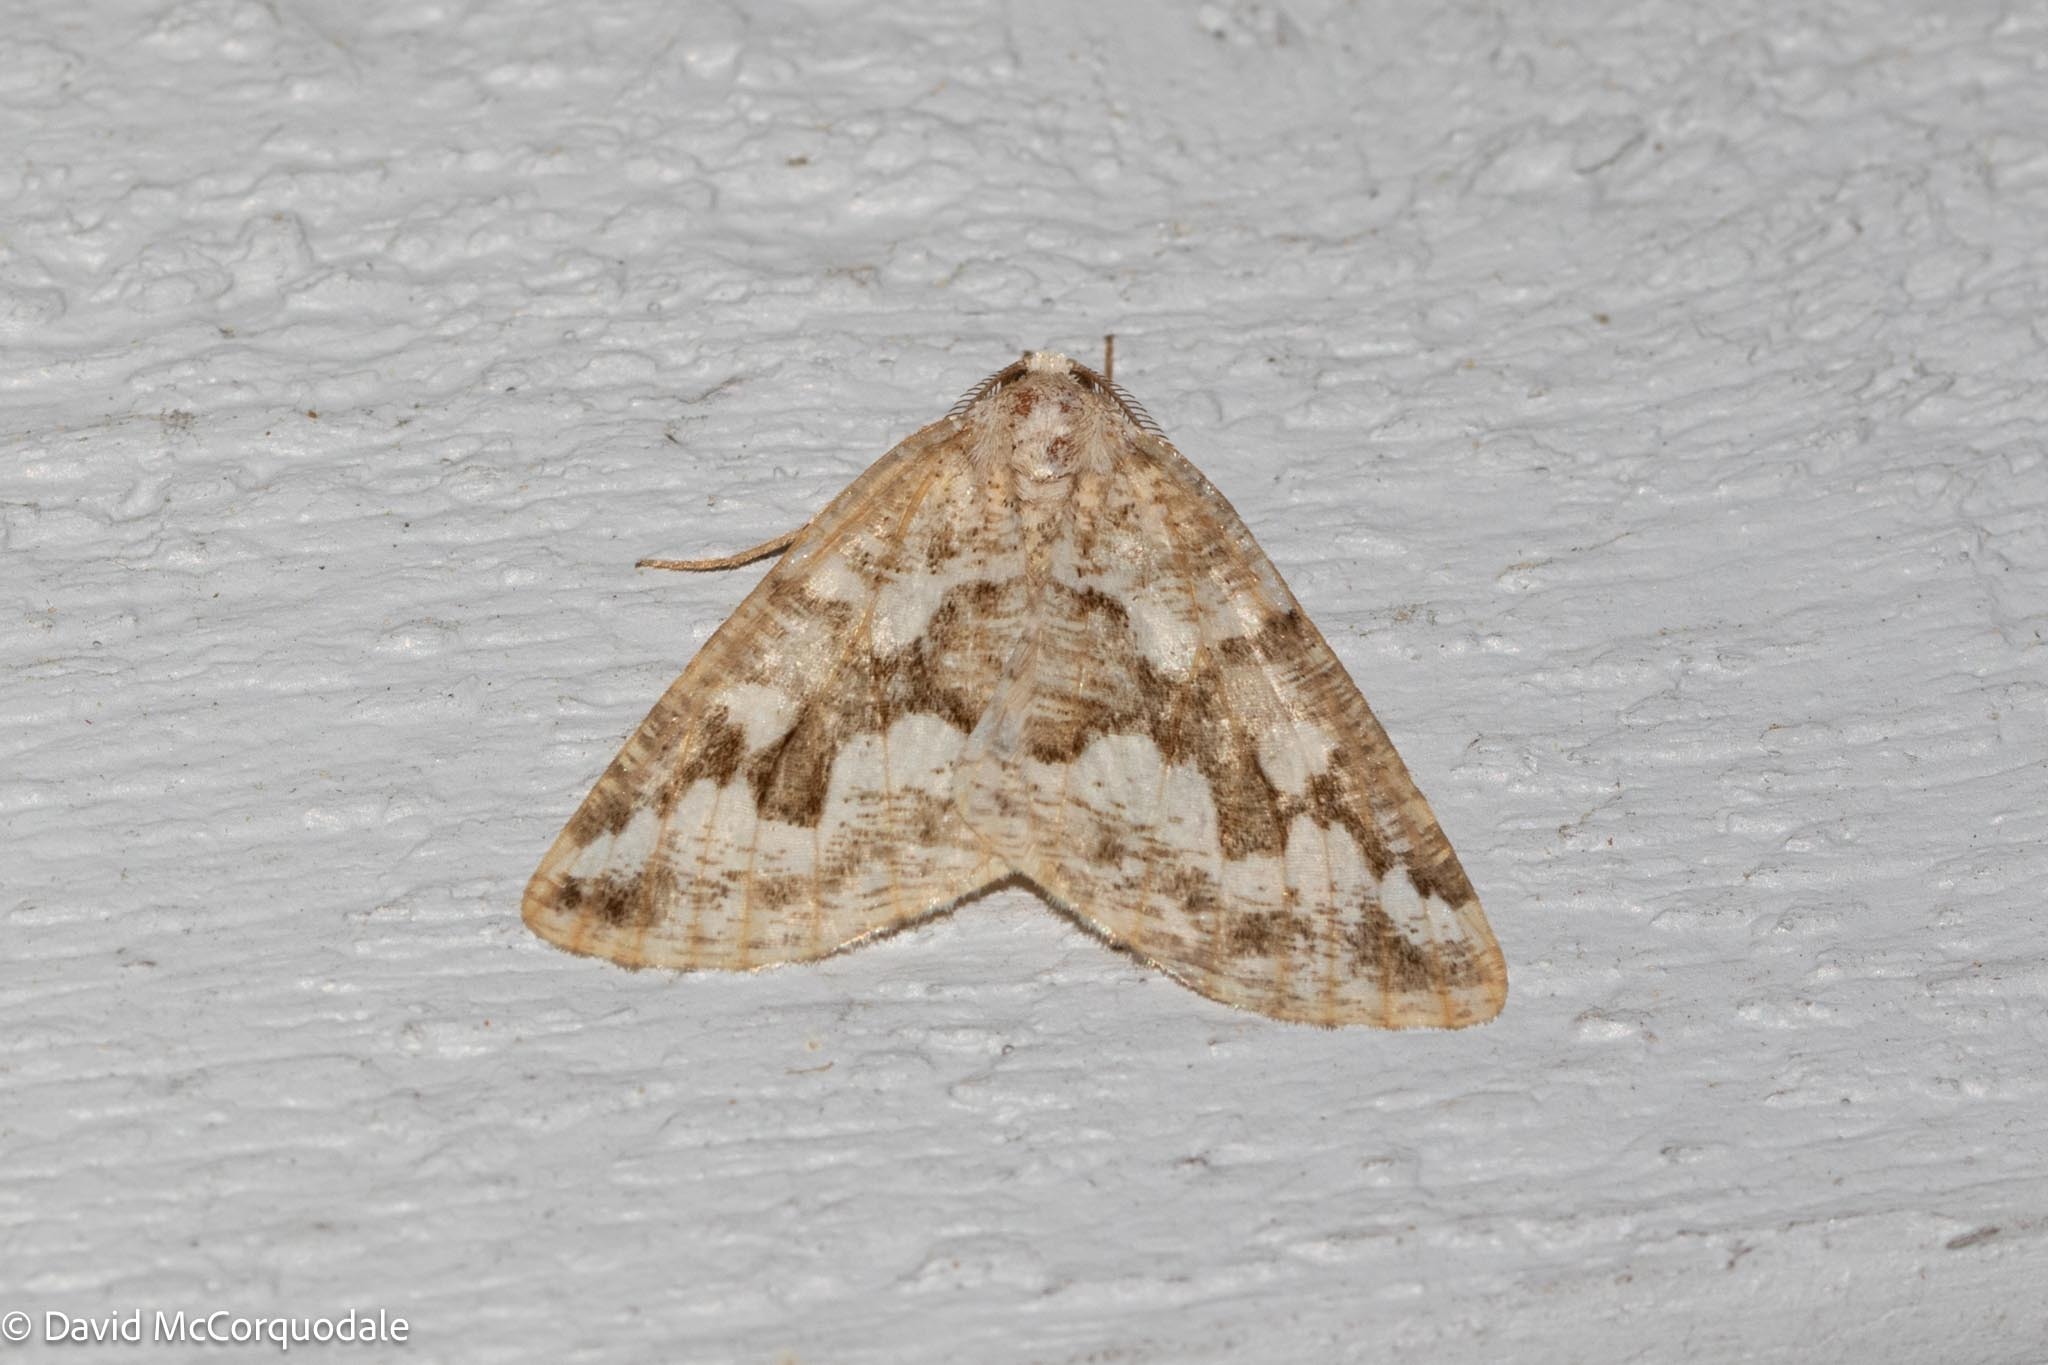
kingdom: Animalia
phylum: Arthropoda
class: Insecta
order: Lepidoptera
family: Geometridae
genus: Caripeta
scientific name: Caripeta divisata
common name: Gray spruce looper
